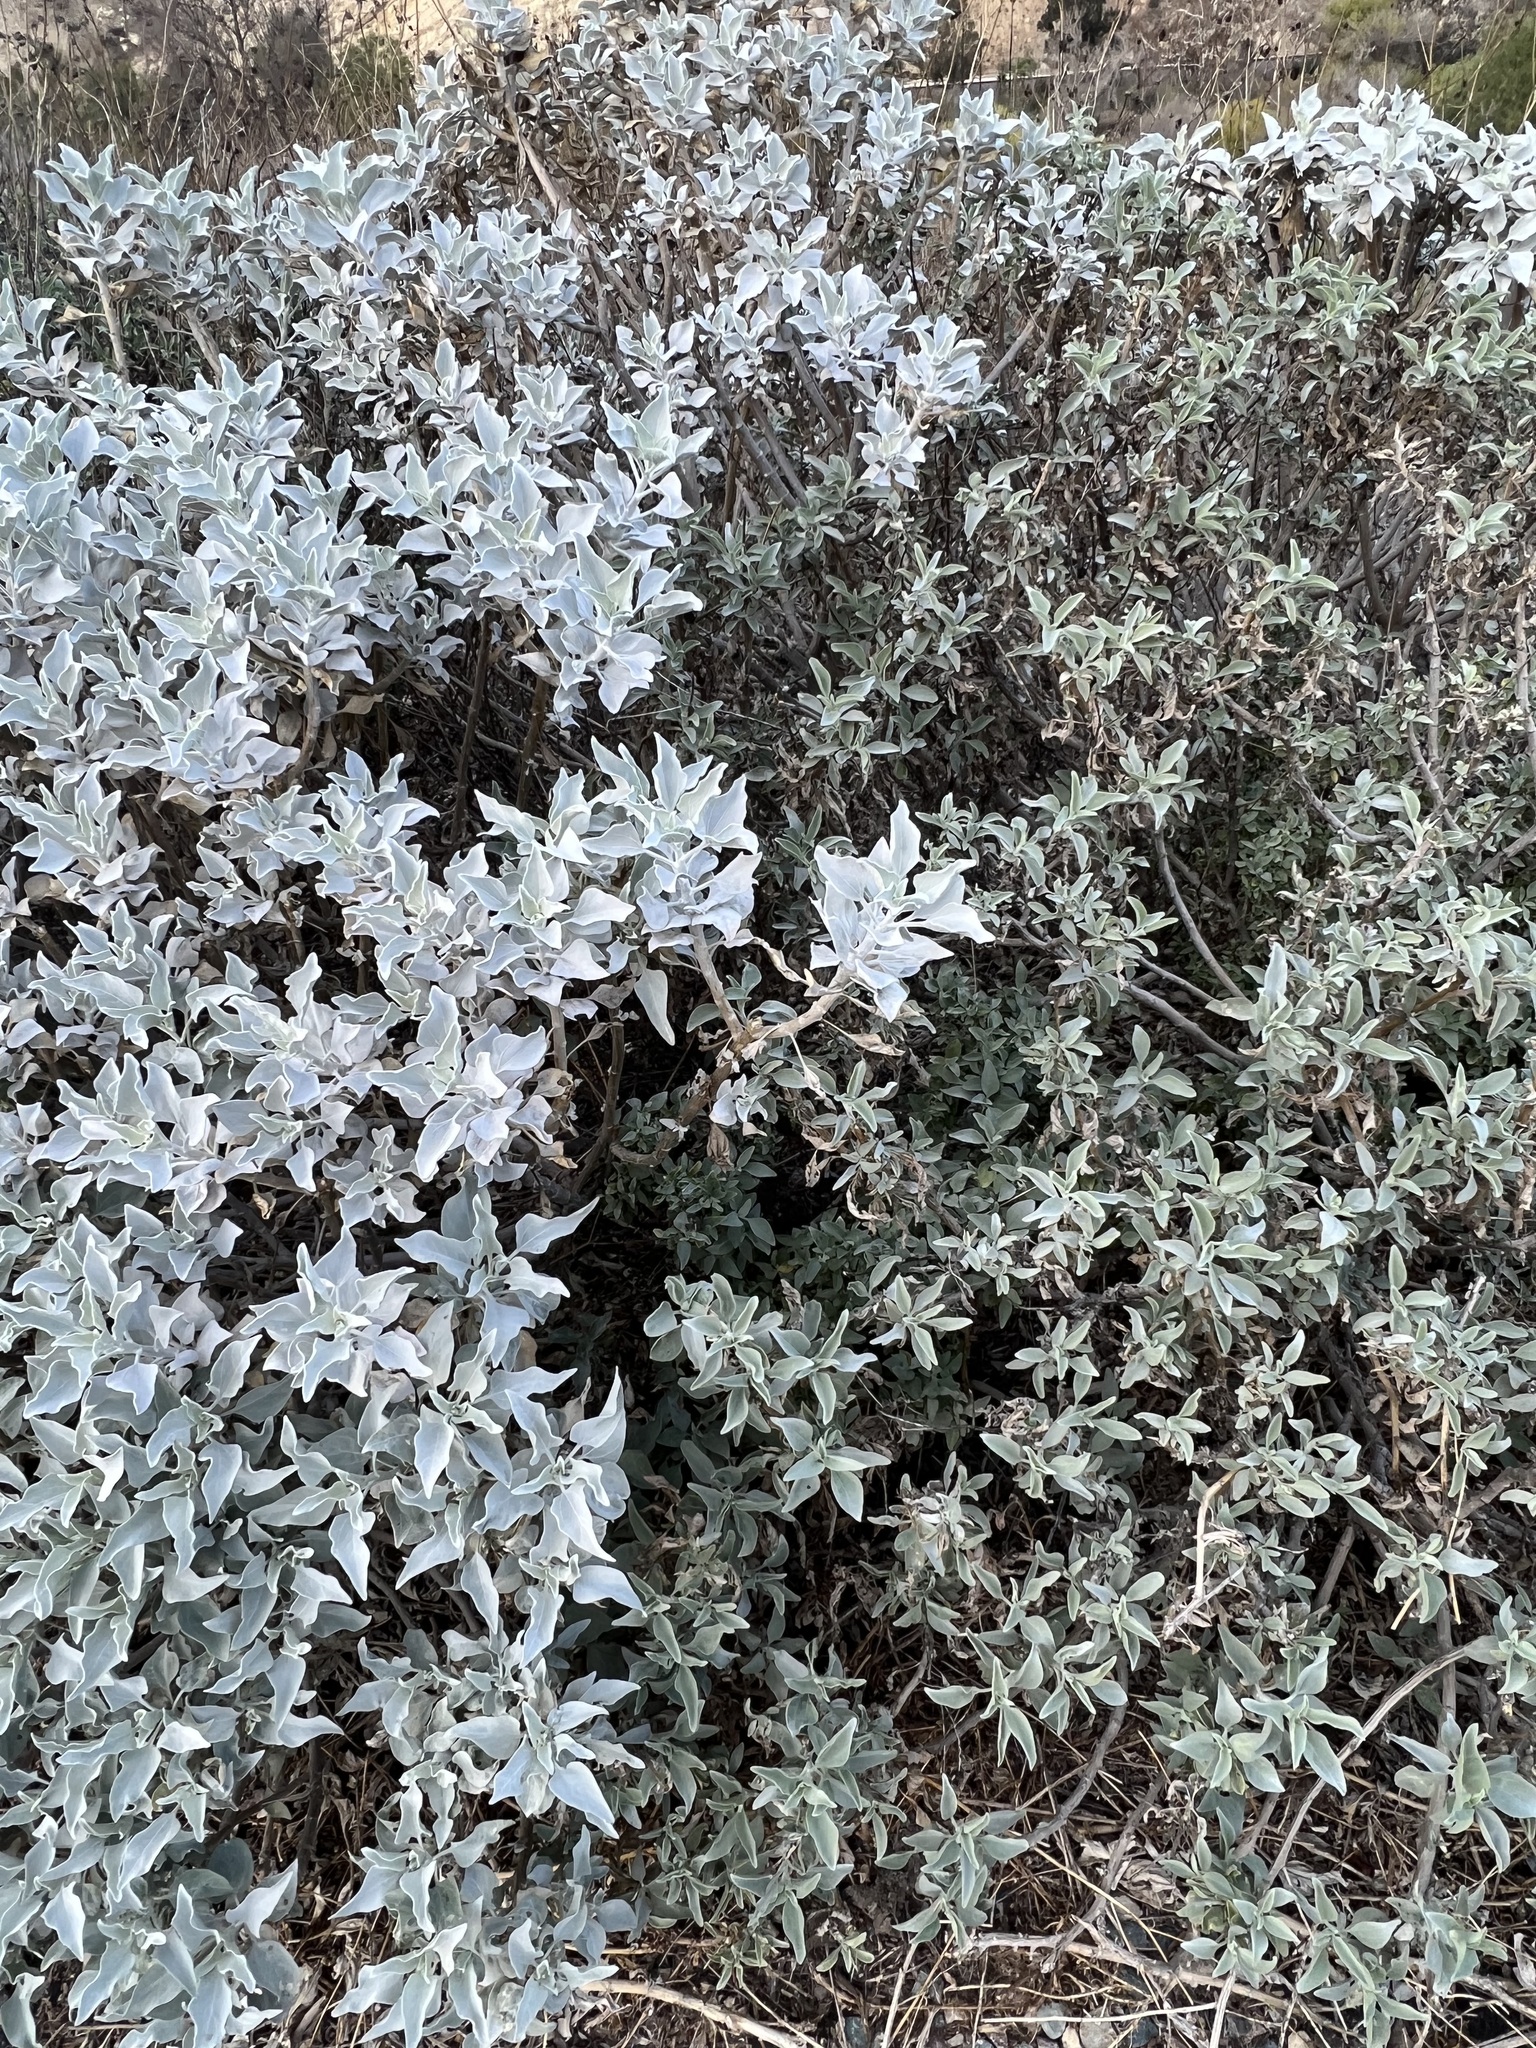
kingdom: Plantae
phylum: Tracheophyta
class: Magnoliopsida
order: Asterales
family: Asteraceae
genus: Encelia
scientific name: Encelia
